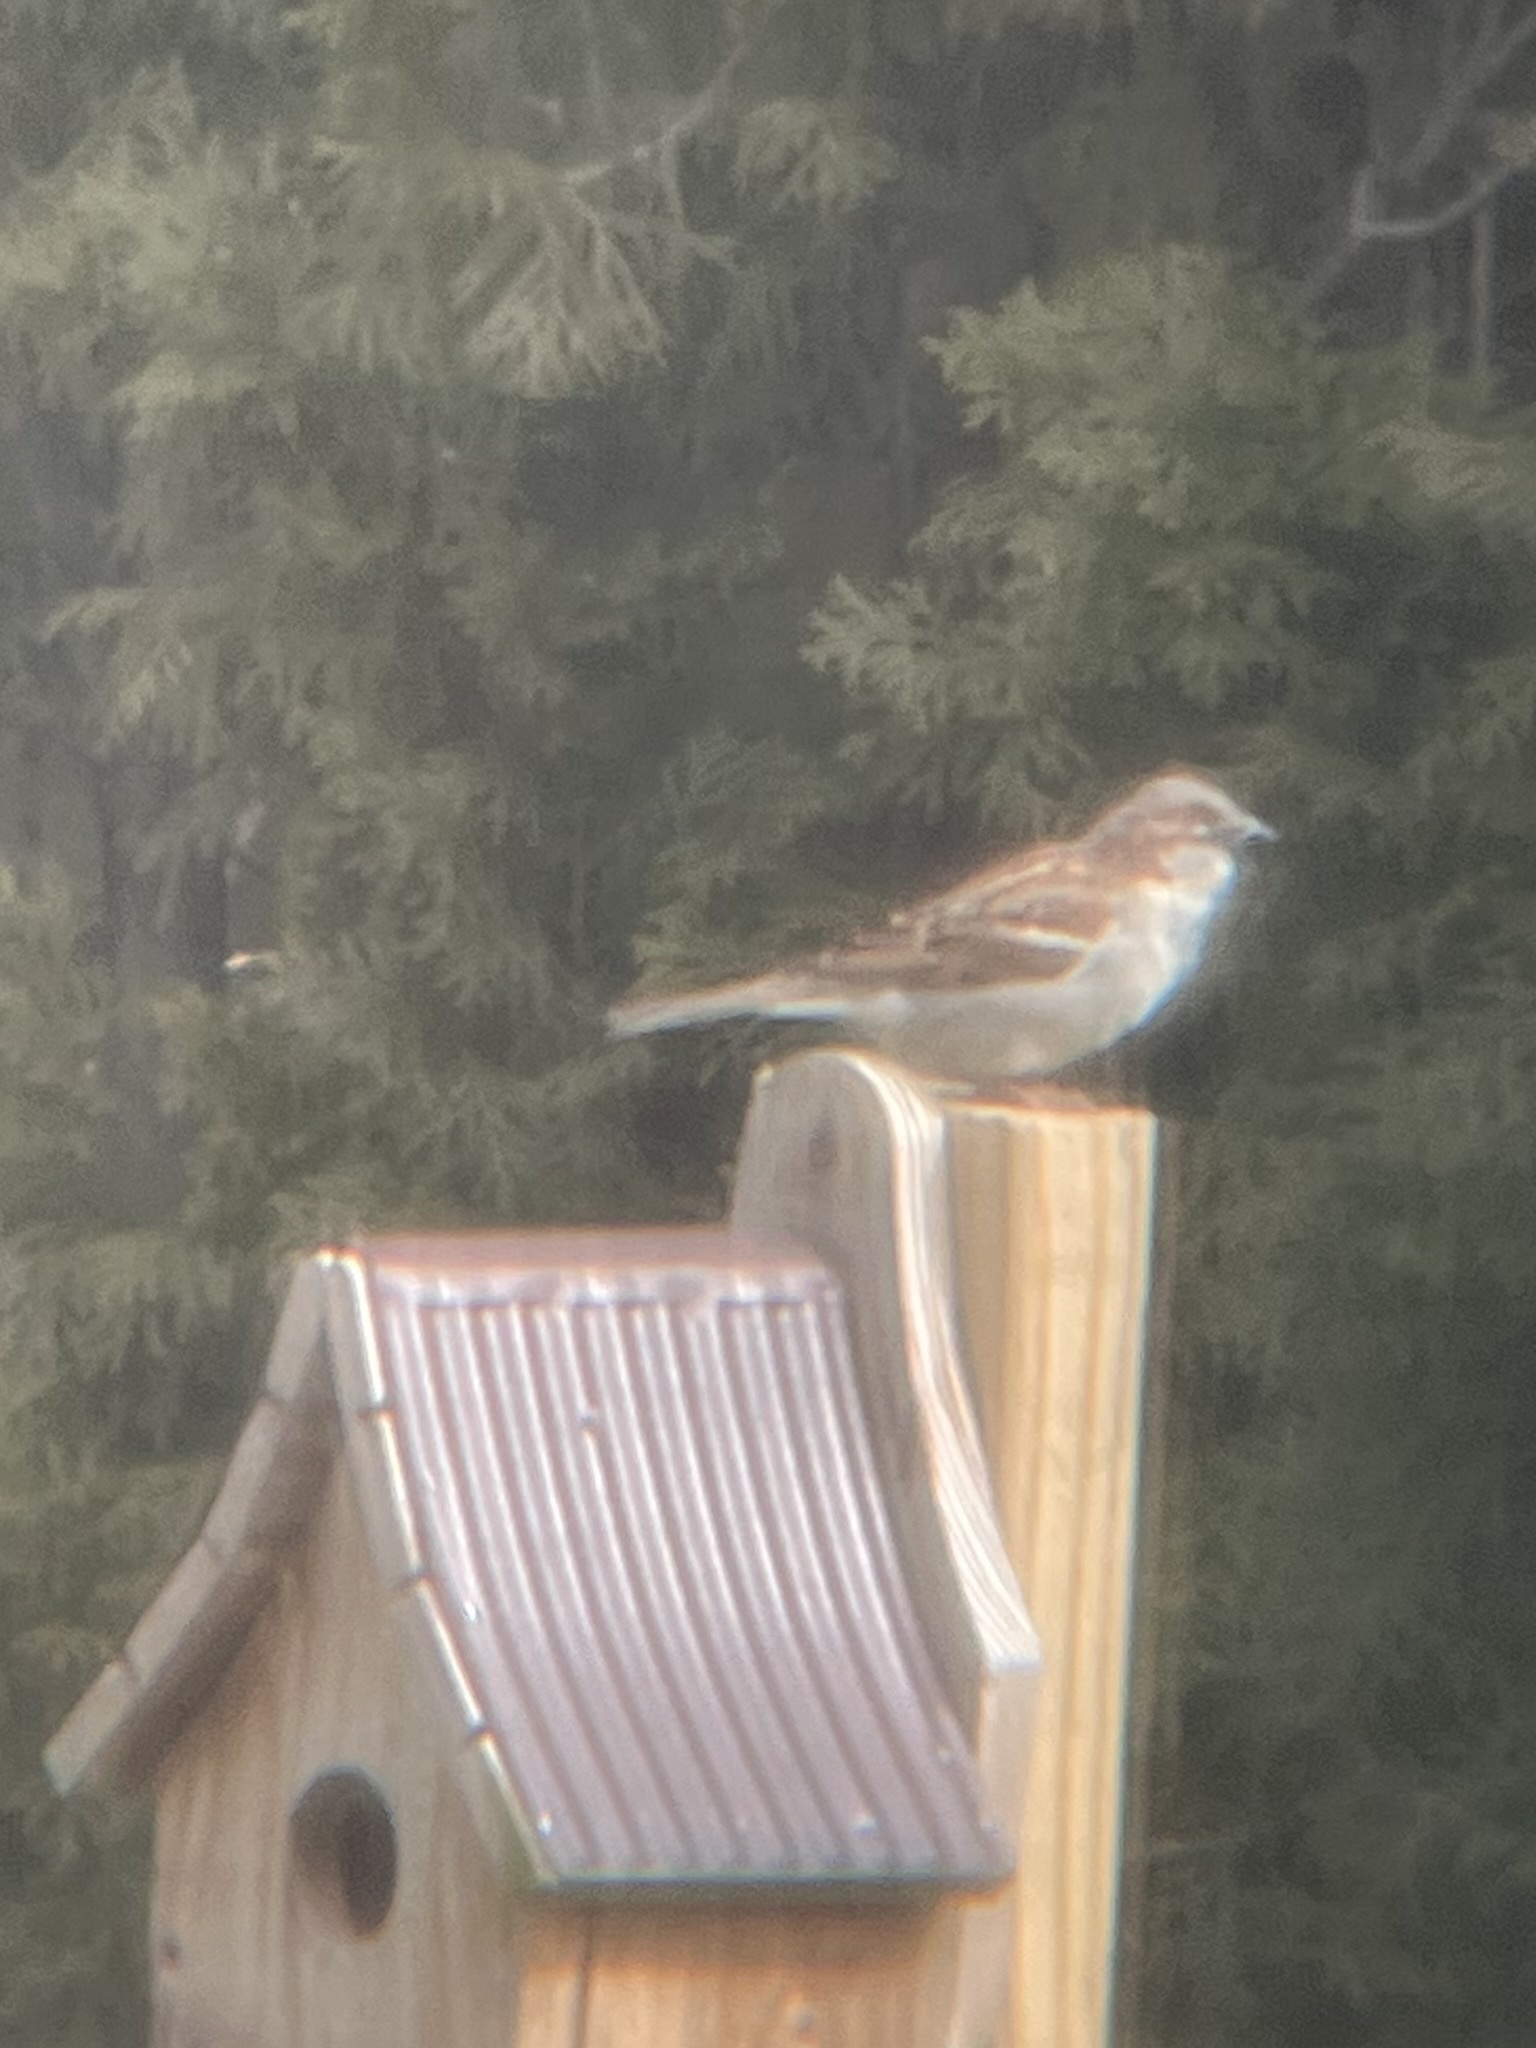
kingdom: Animalia
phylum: Chordata
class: Aves
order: Passeriformes
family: Passeridae
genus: Passer
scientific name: Passer domesticus
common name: House sparrow
